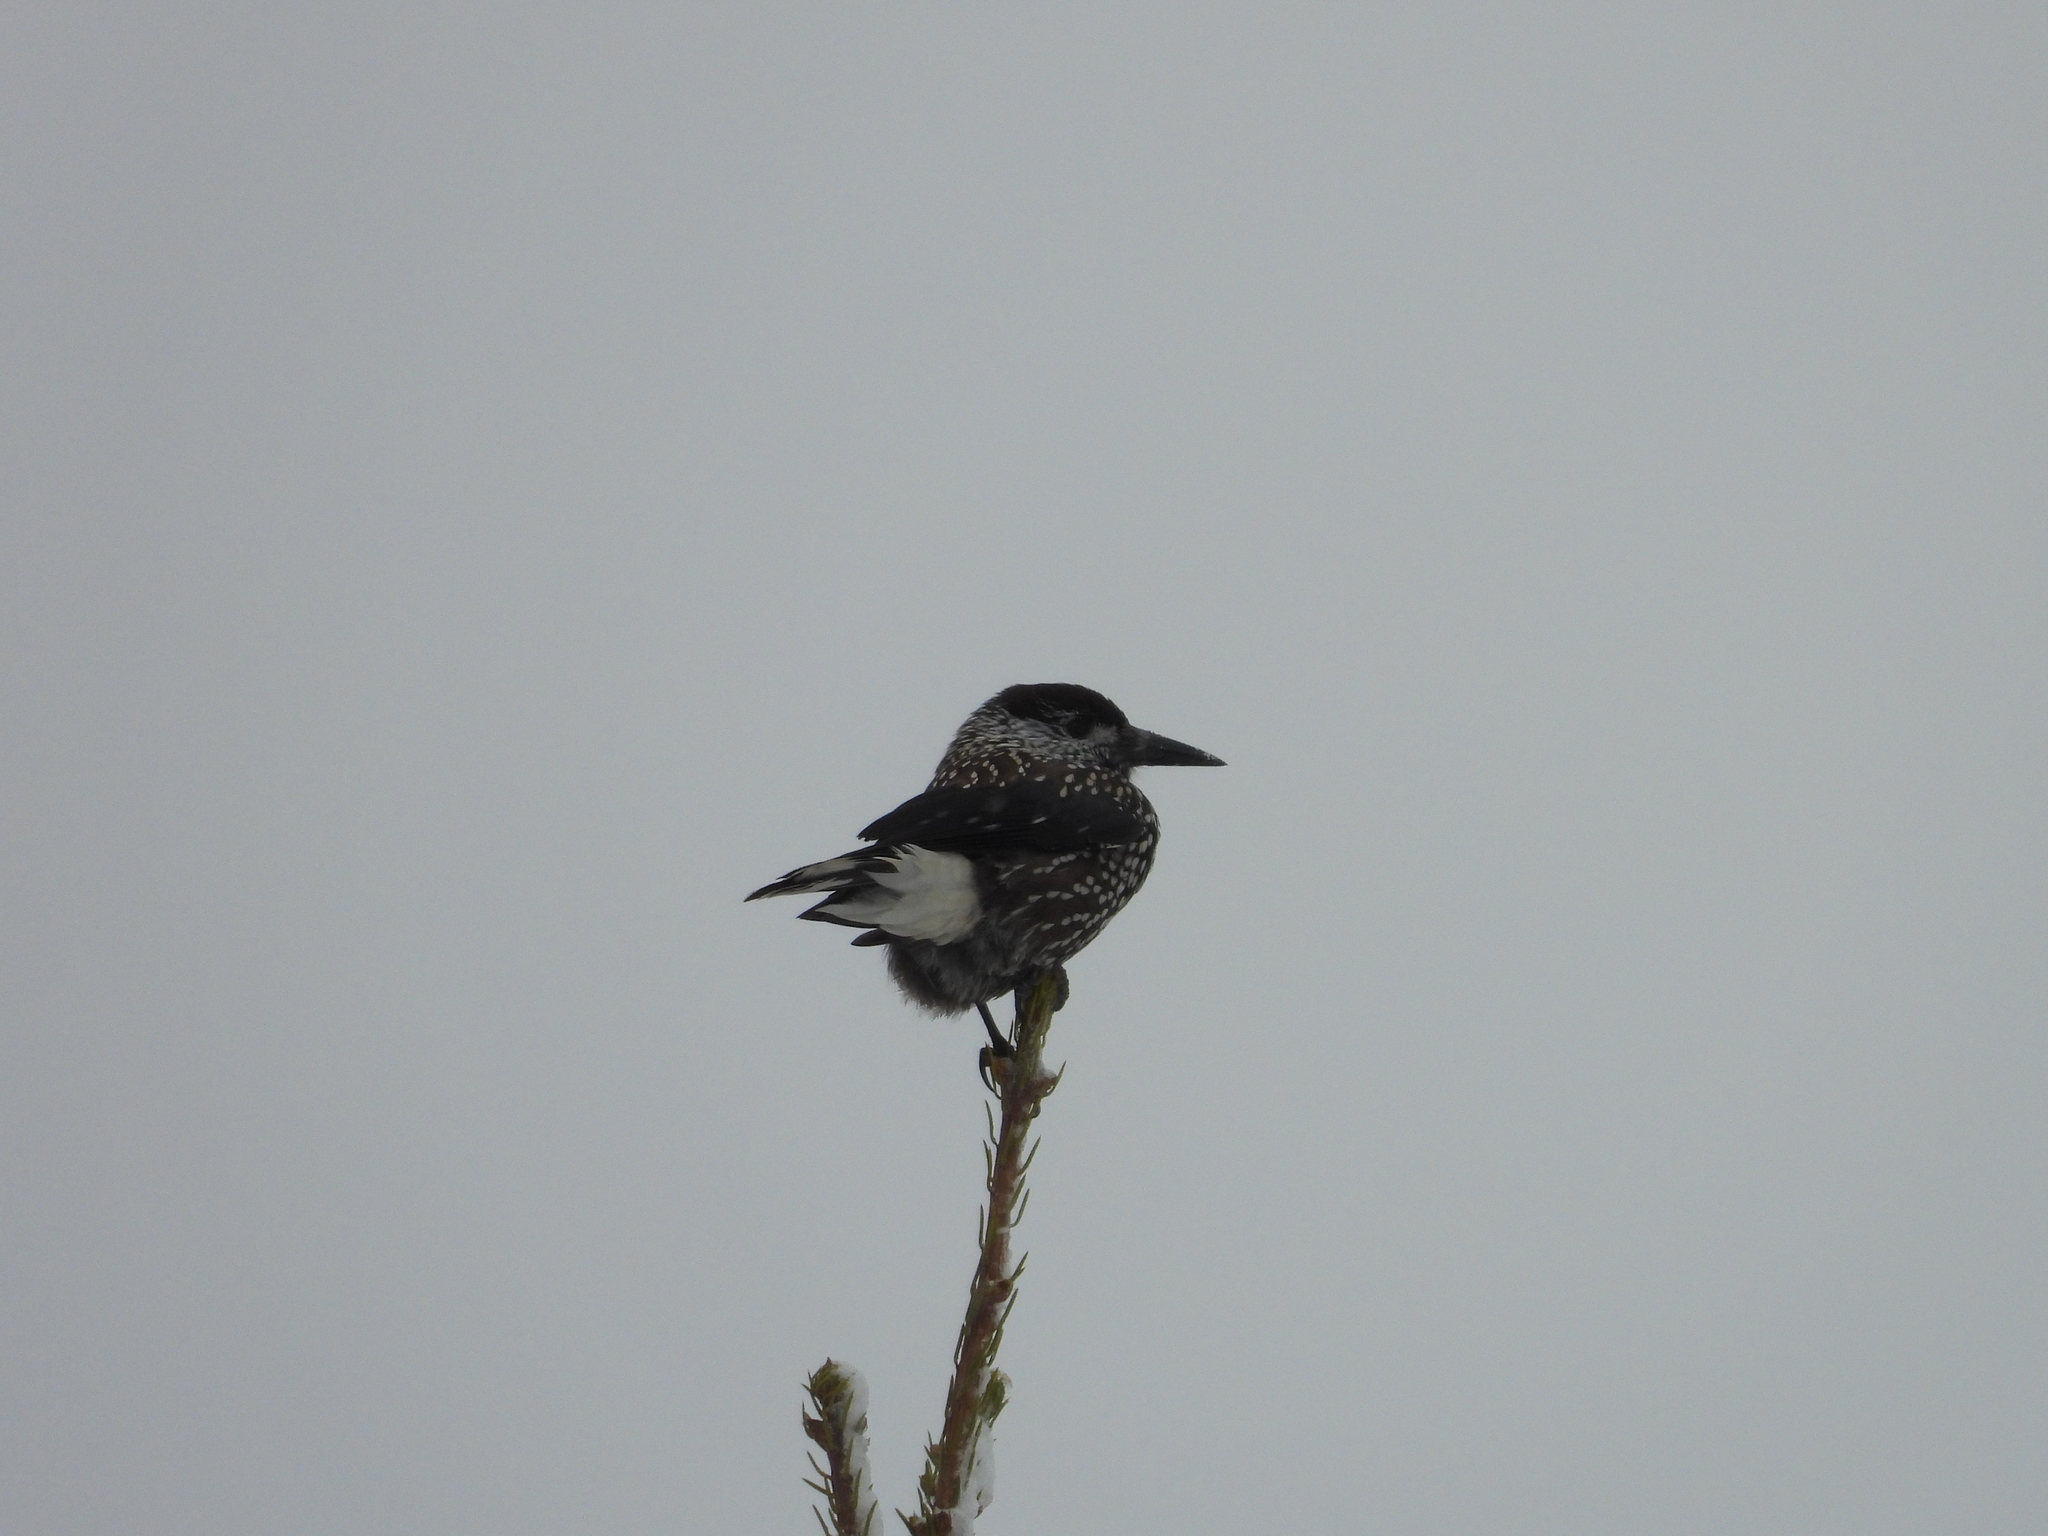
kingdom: Animalia
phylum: Chordata
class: Aves
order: Passeriformes
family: Corvidae
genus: Nucifraga
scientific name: Nucifraga caryocatactes
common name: Spotted nutcracker
